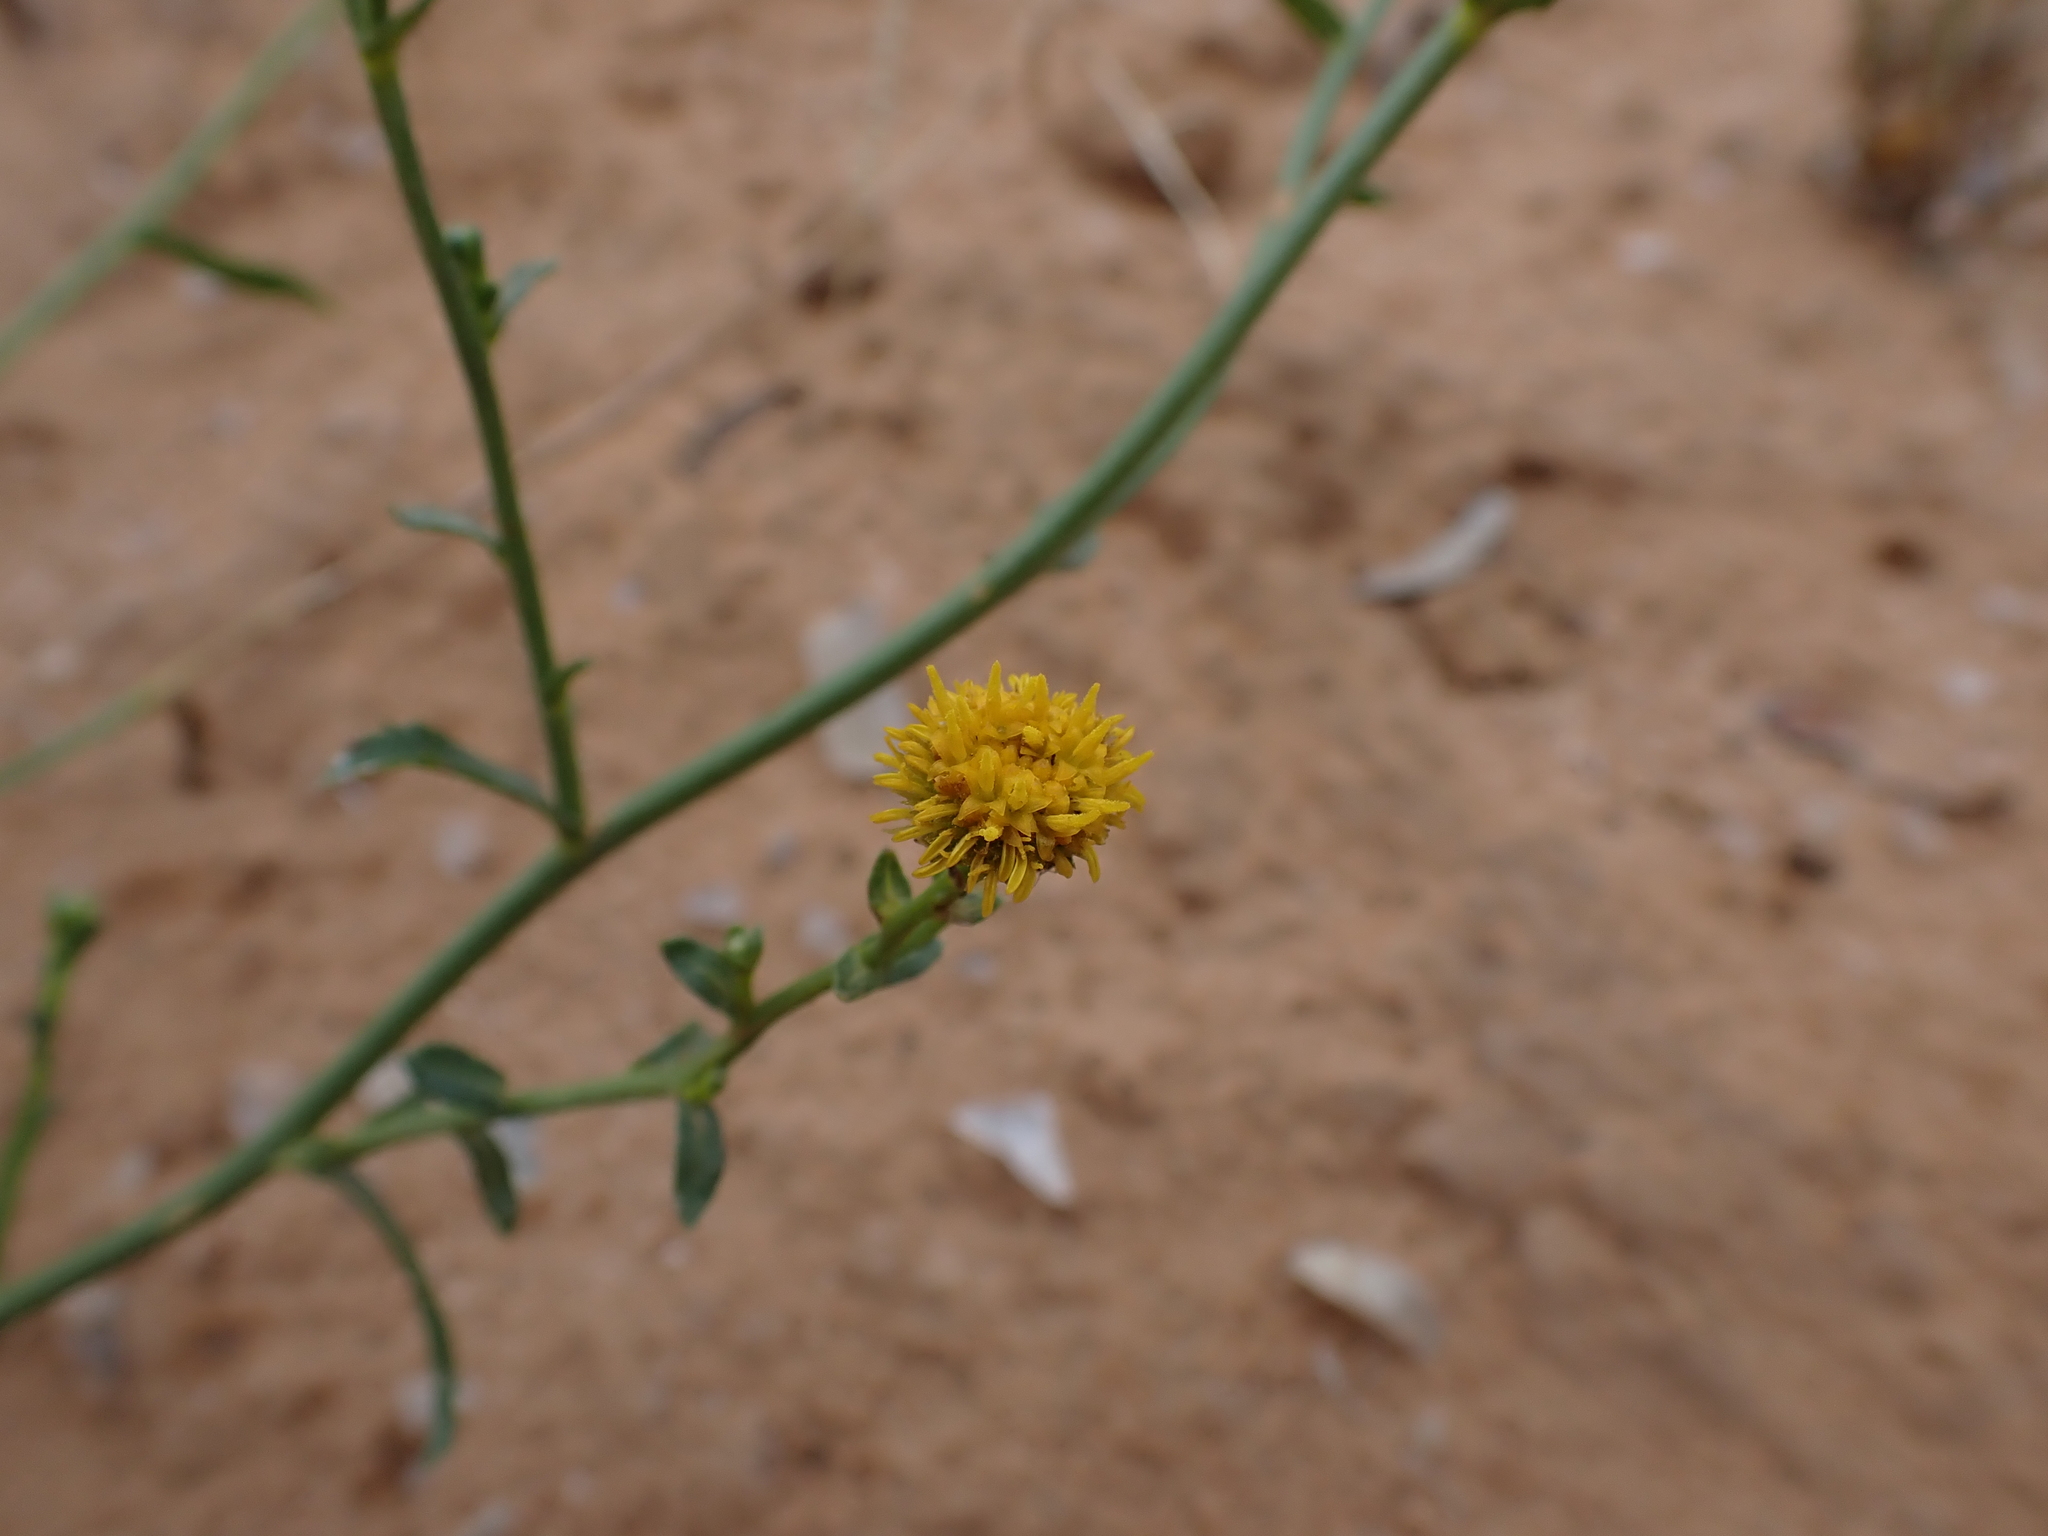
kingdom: Plantae
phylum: Tracheophyta
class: Magnoliopsida
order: Asterales
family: Asteraceae
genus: Calotis
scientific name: Calotis erinacea
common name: Tangled bur daisy
